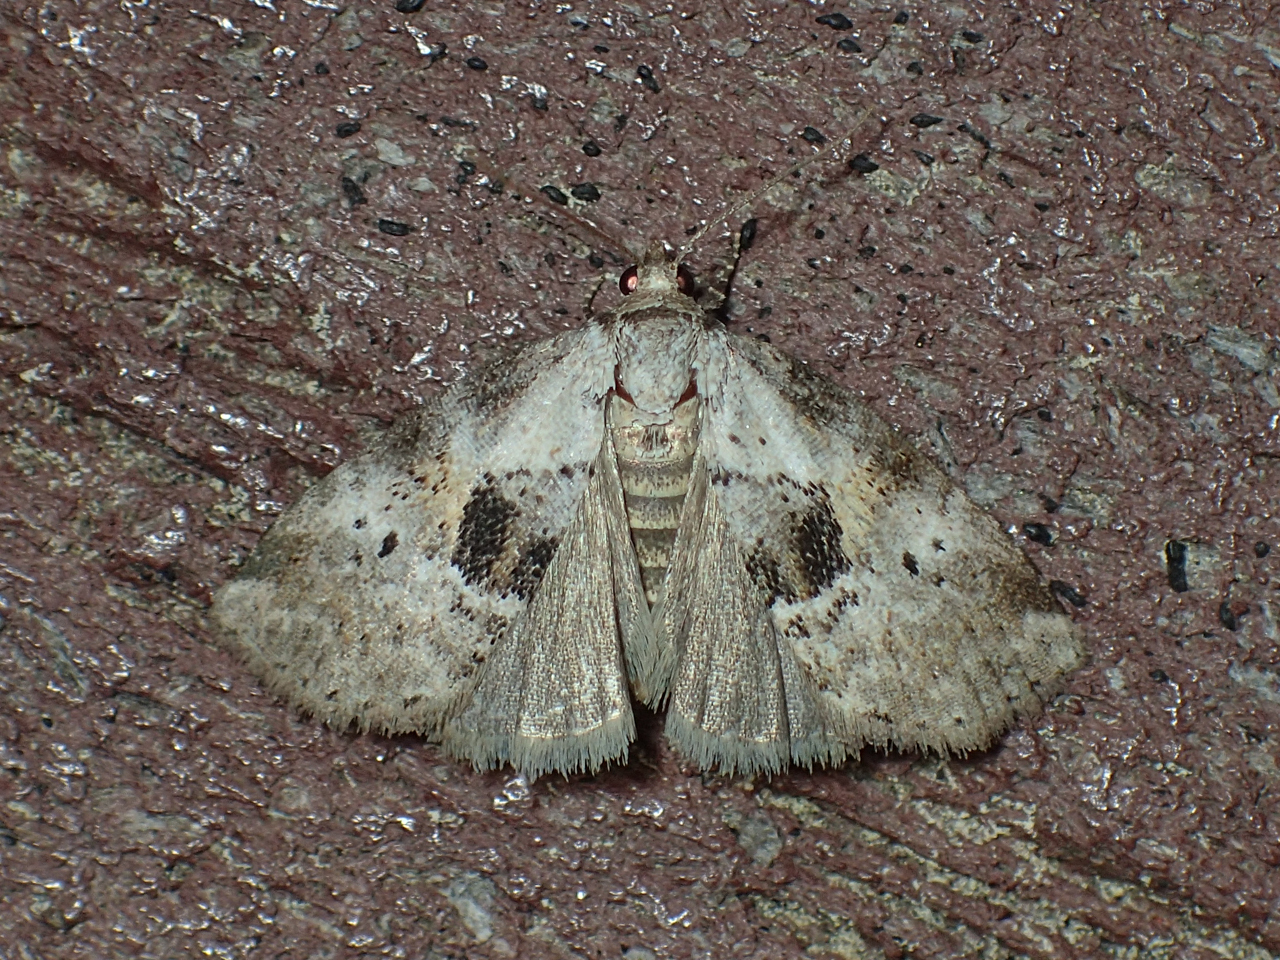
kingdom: Animalia
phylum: Arthropoda
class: Insecta
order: Lepidoptera
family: Erebidae
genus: Hyperstrotia
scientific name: Hyperstrotia secta
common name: Black-patched graylet
